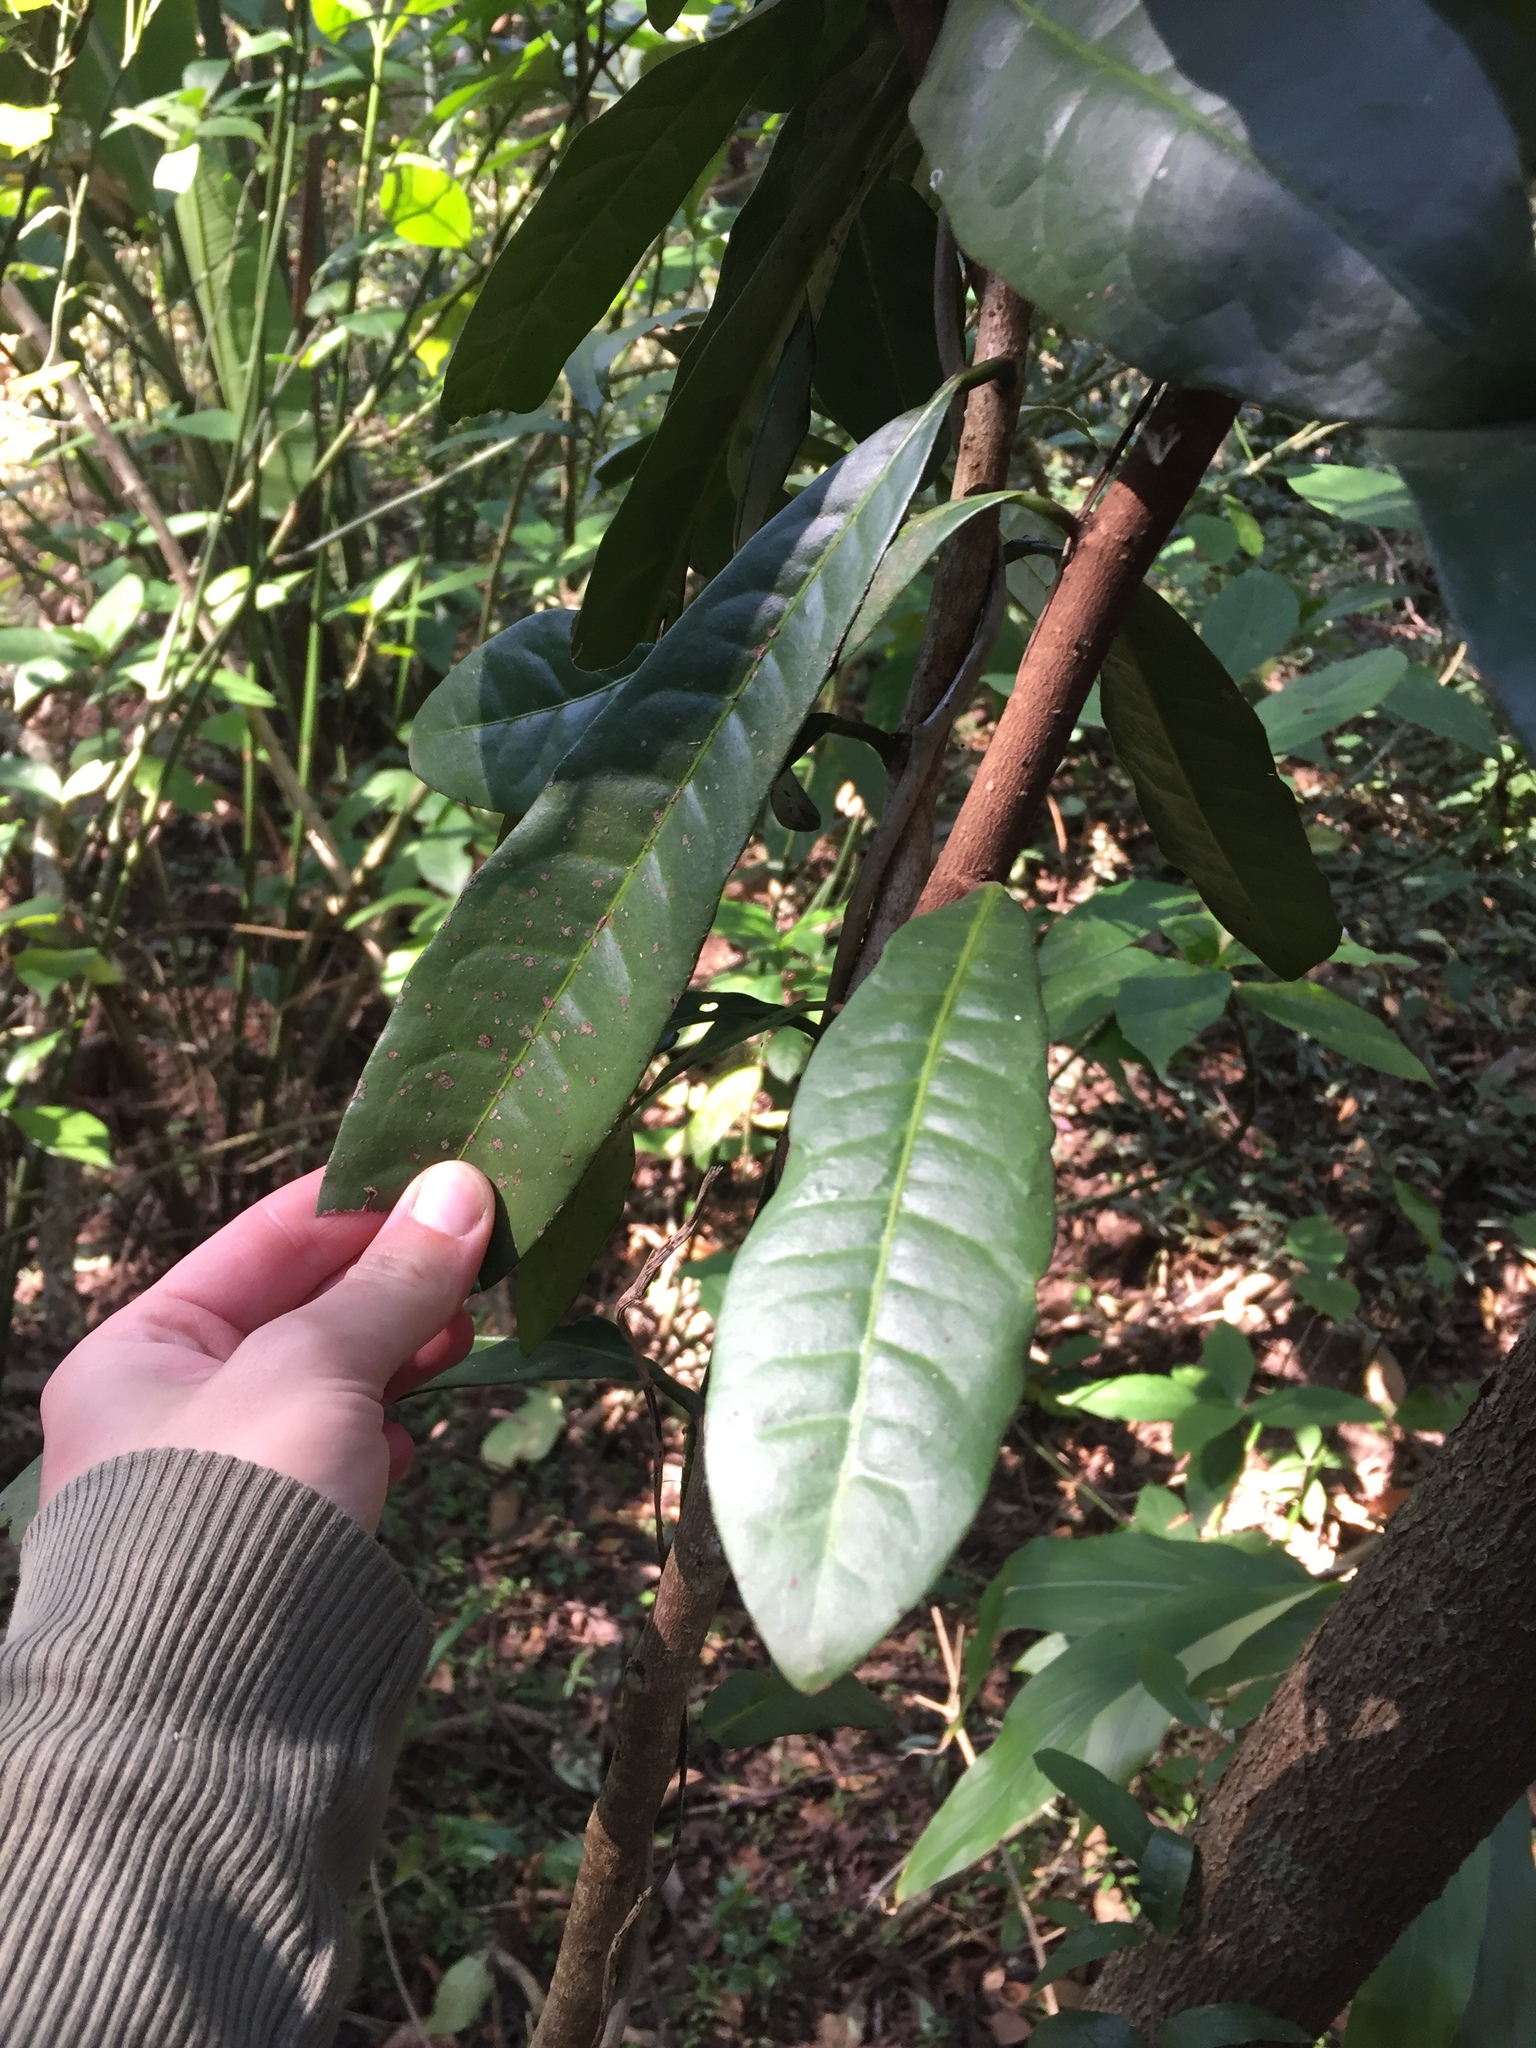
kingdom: Plantae
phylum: Tracheophyta
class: Magnoliopsida
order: Malpighiales
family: Malpighiaceae
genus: Acridocarpus
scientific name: Acridocarpus natalitius
